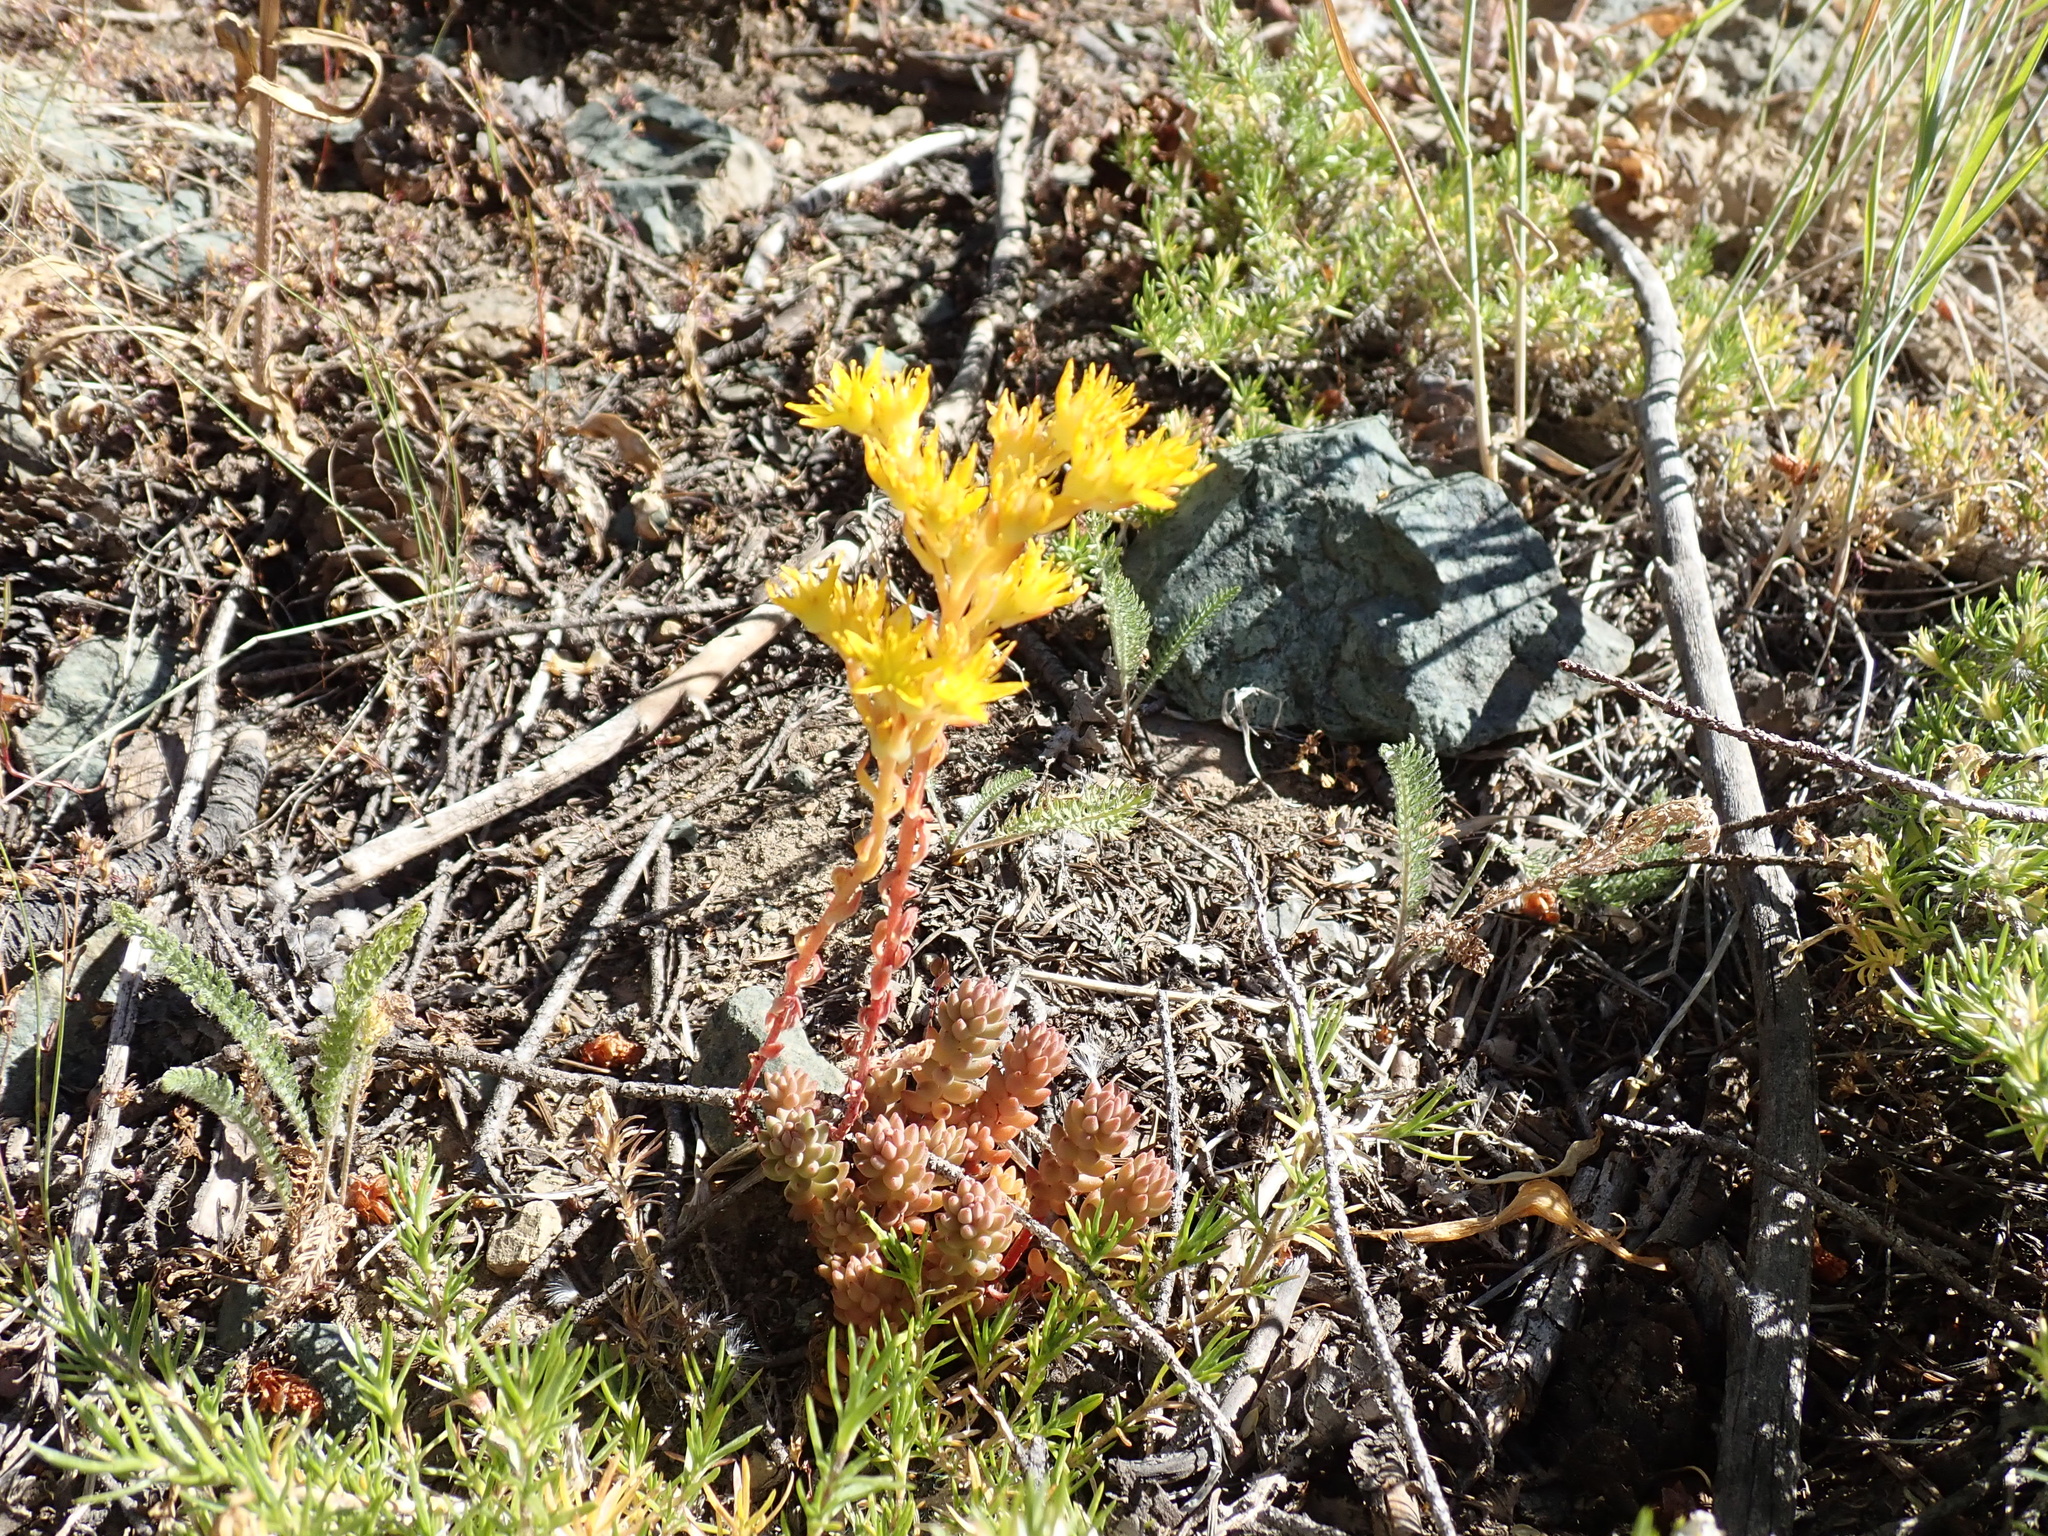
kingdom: Plantae
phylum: Tracheophyta
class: Magnoliopsida
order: Saxifragales
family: Crassulaceae
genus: Sedum
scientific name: Sedum rupicola
